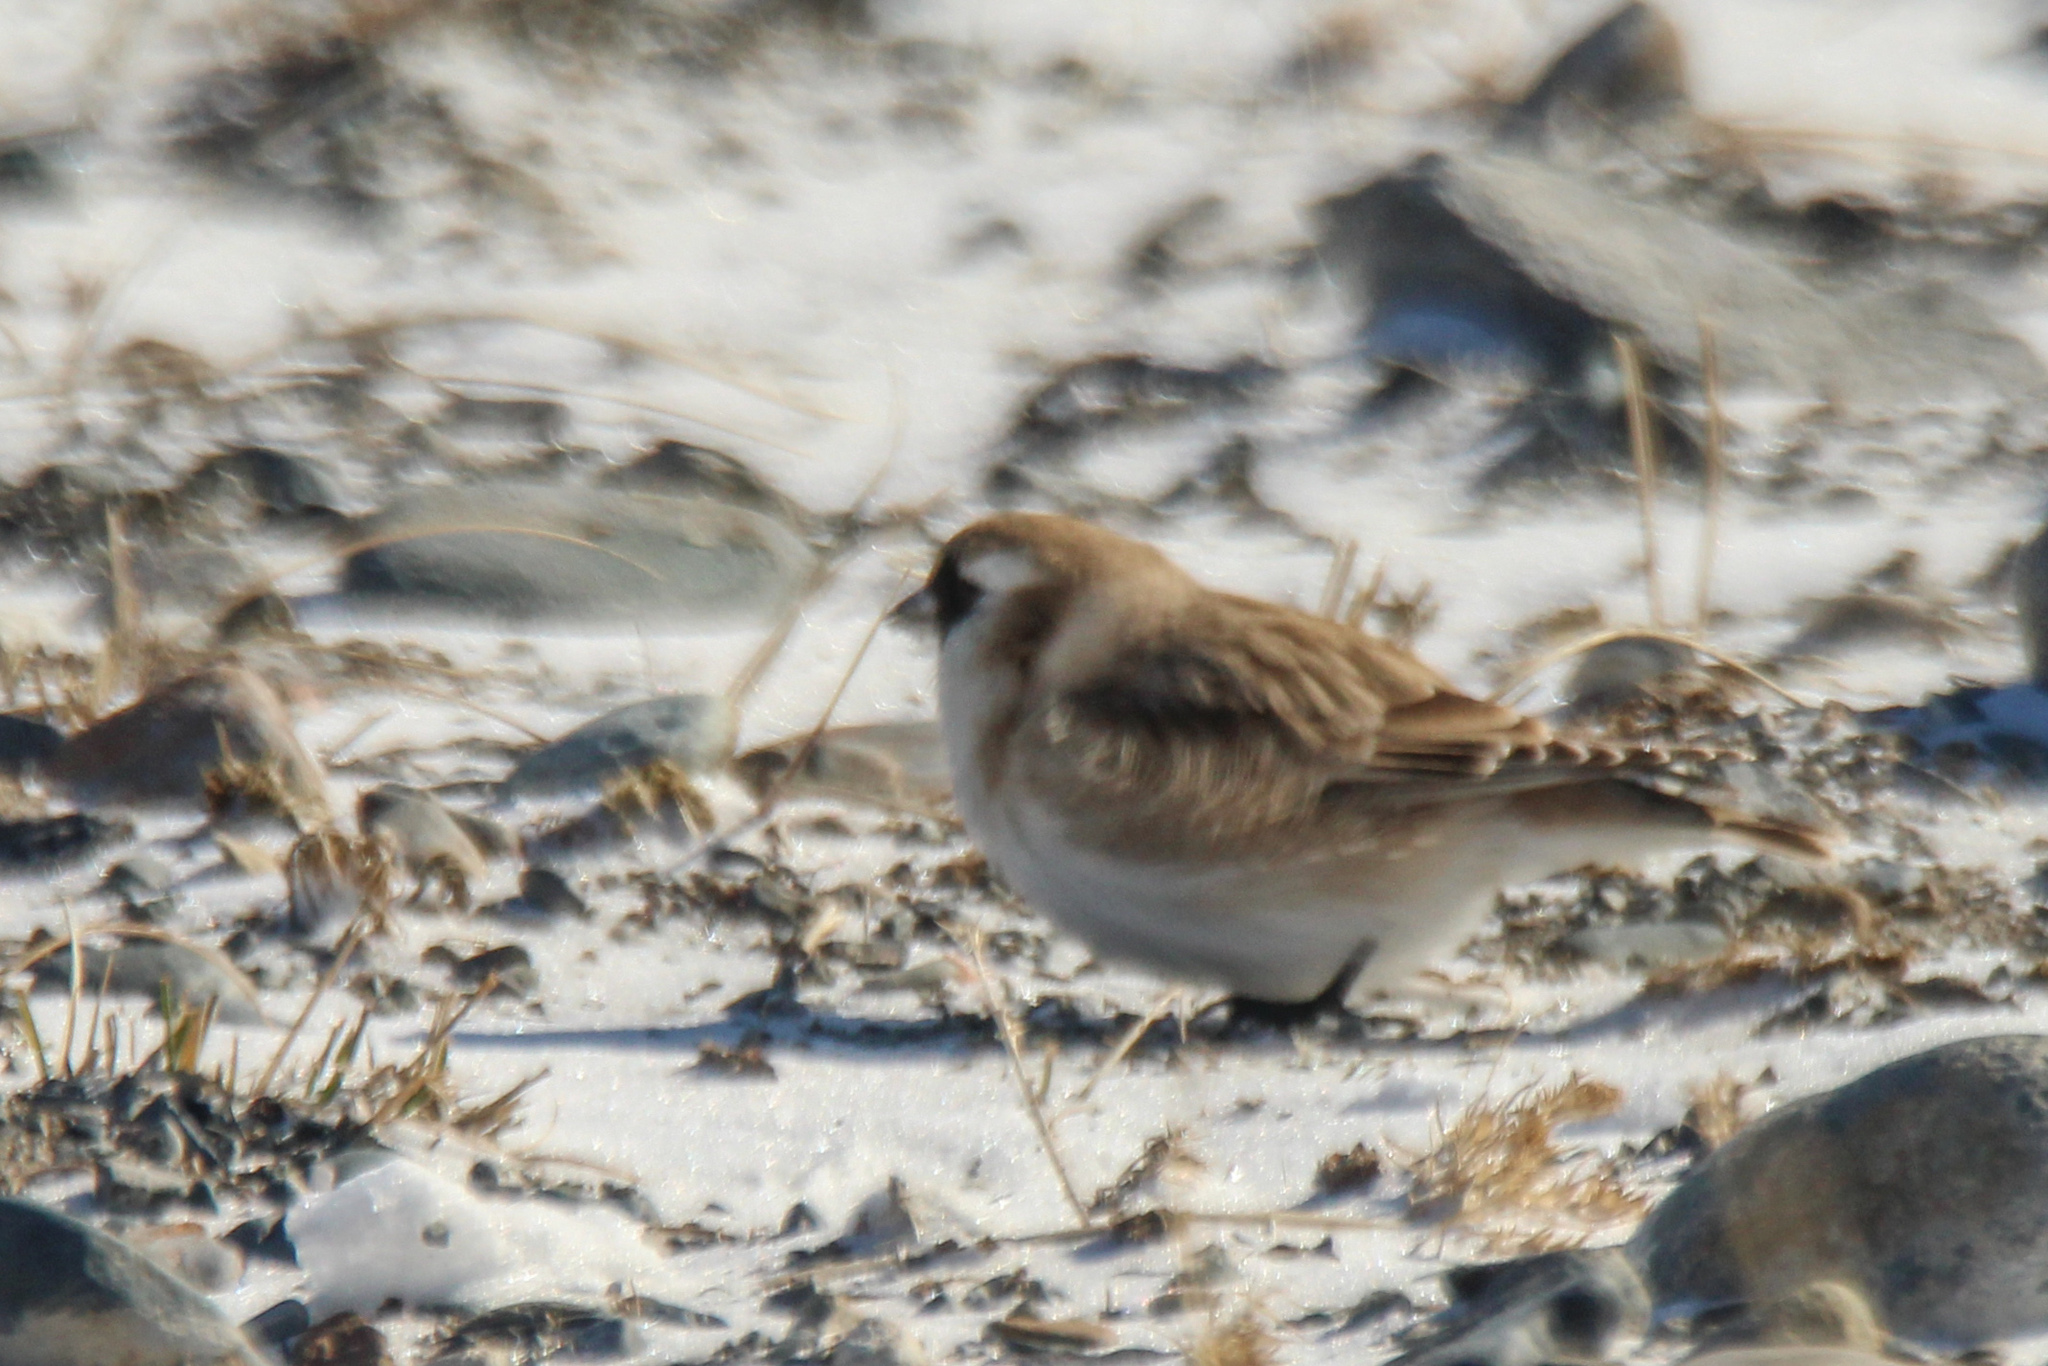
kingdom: Animalia
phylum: Chordata
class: Aves
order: Passeriformes
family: Passeridae
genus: Pyrgilauda
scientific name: Pyrgilauda davidiana
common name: Pere david's snowfinch
